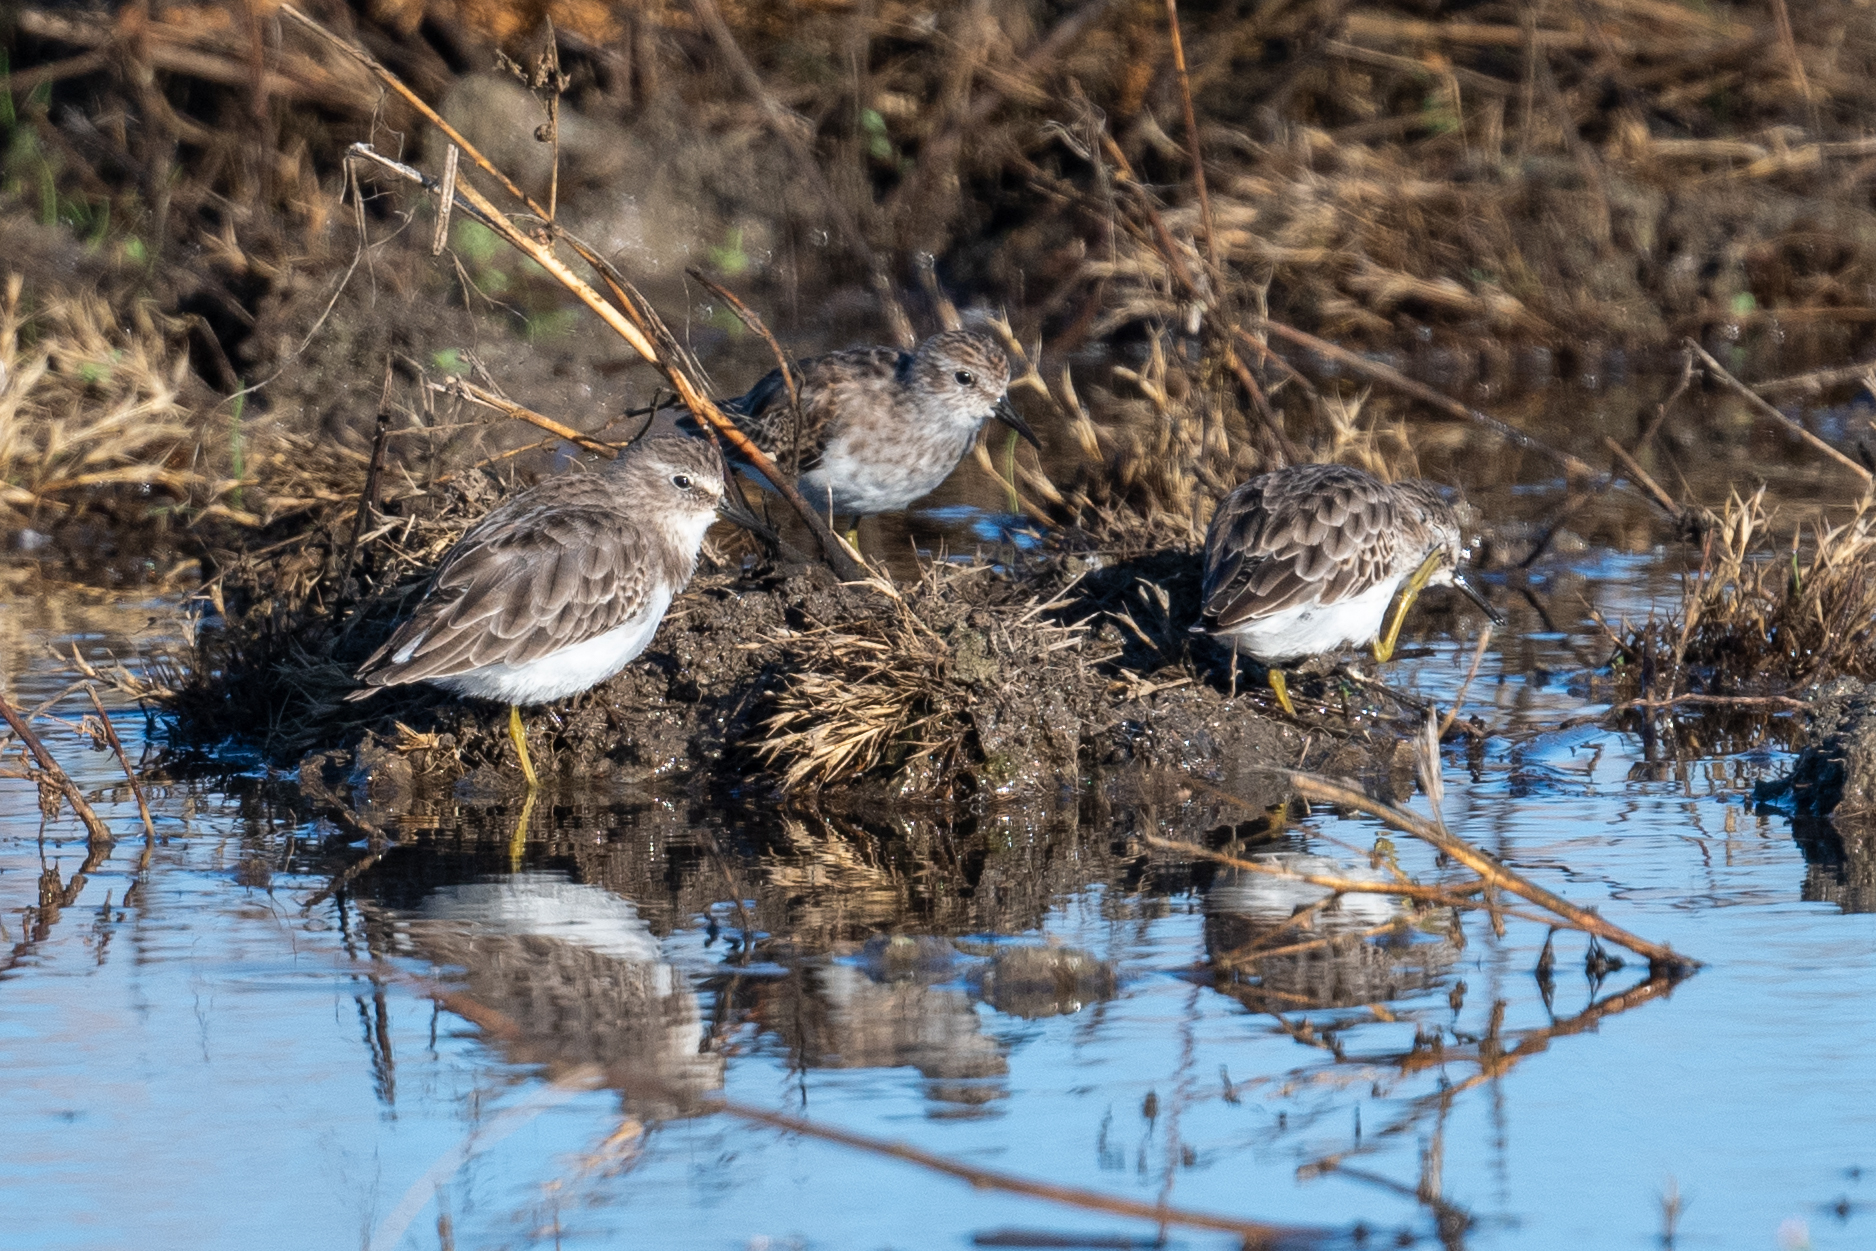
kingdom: Animalia
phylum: Chordata
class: Aves
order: Charadriiformes
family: Scolopacidae
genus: Calidris
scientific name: Calidris minutilla
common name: Least sandpiper
